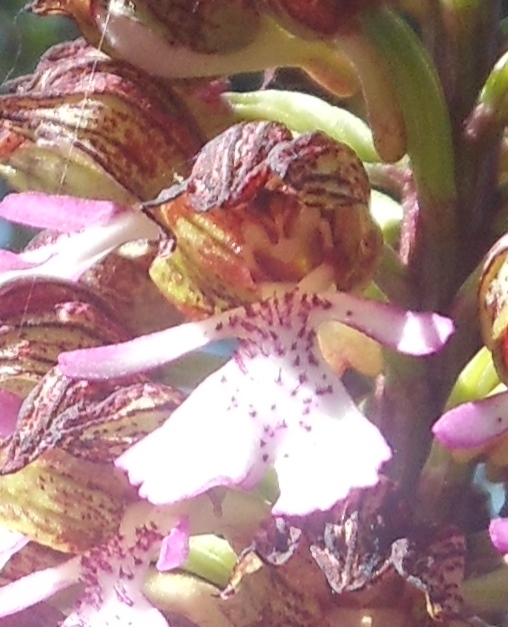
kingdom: Plantae
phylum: Tracheophyta
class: Liliopsida
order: Asparagales
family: Orchidaceae
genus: Orchis
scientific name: Orchis purpurea
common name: Lady orchid
